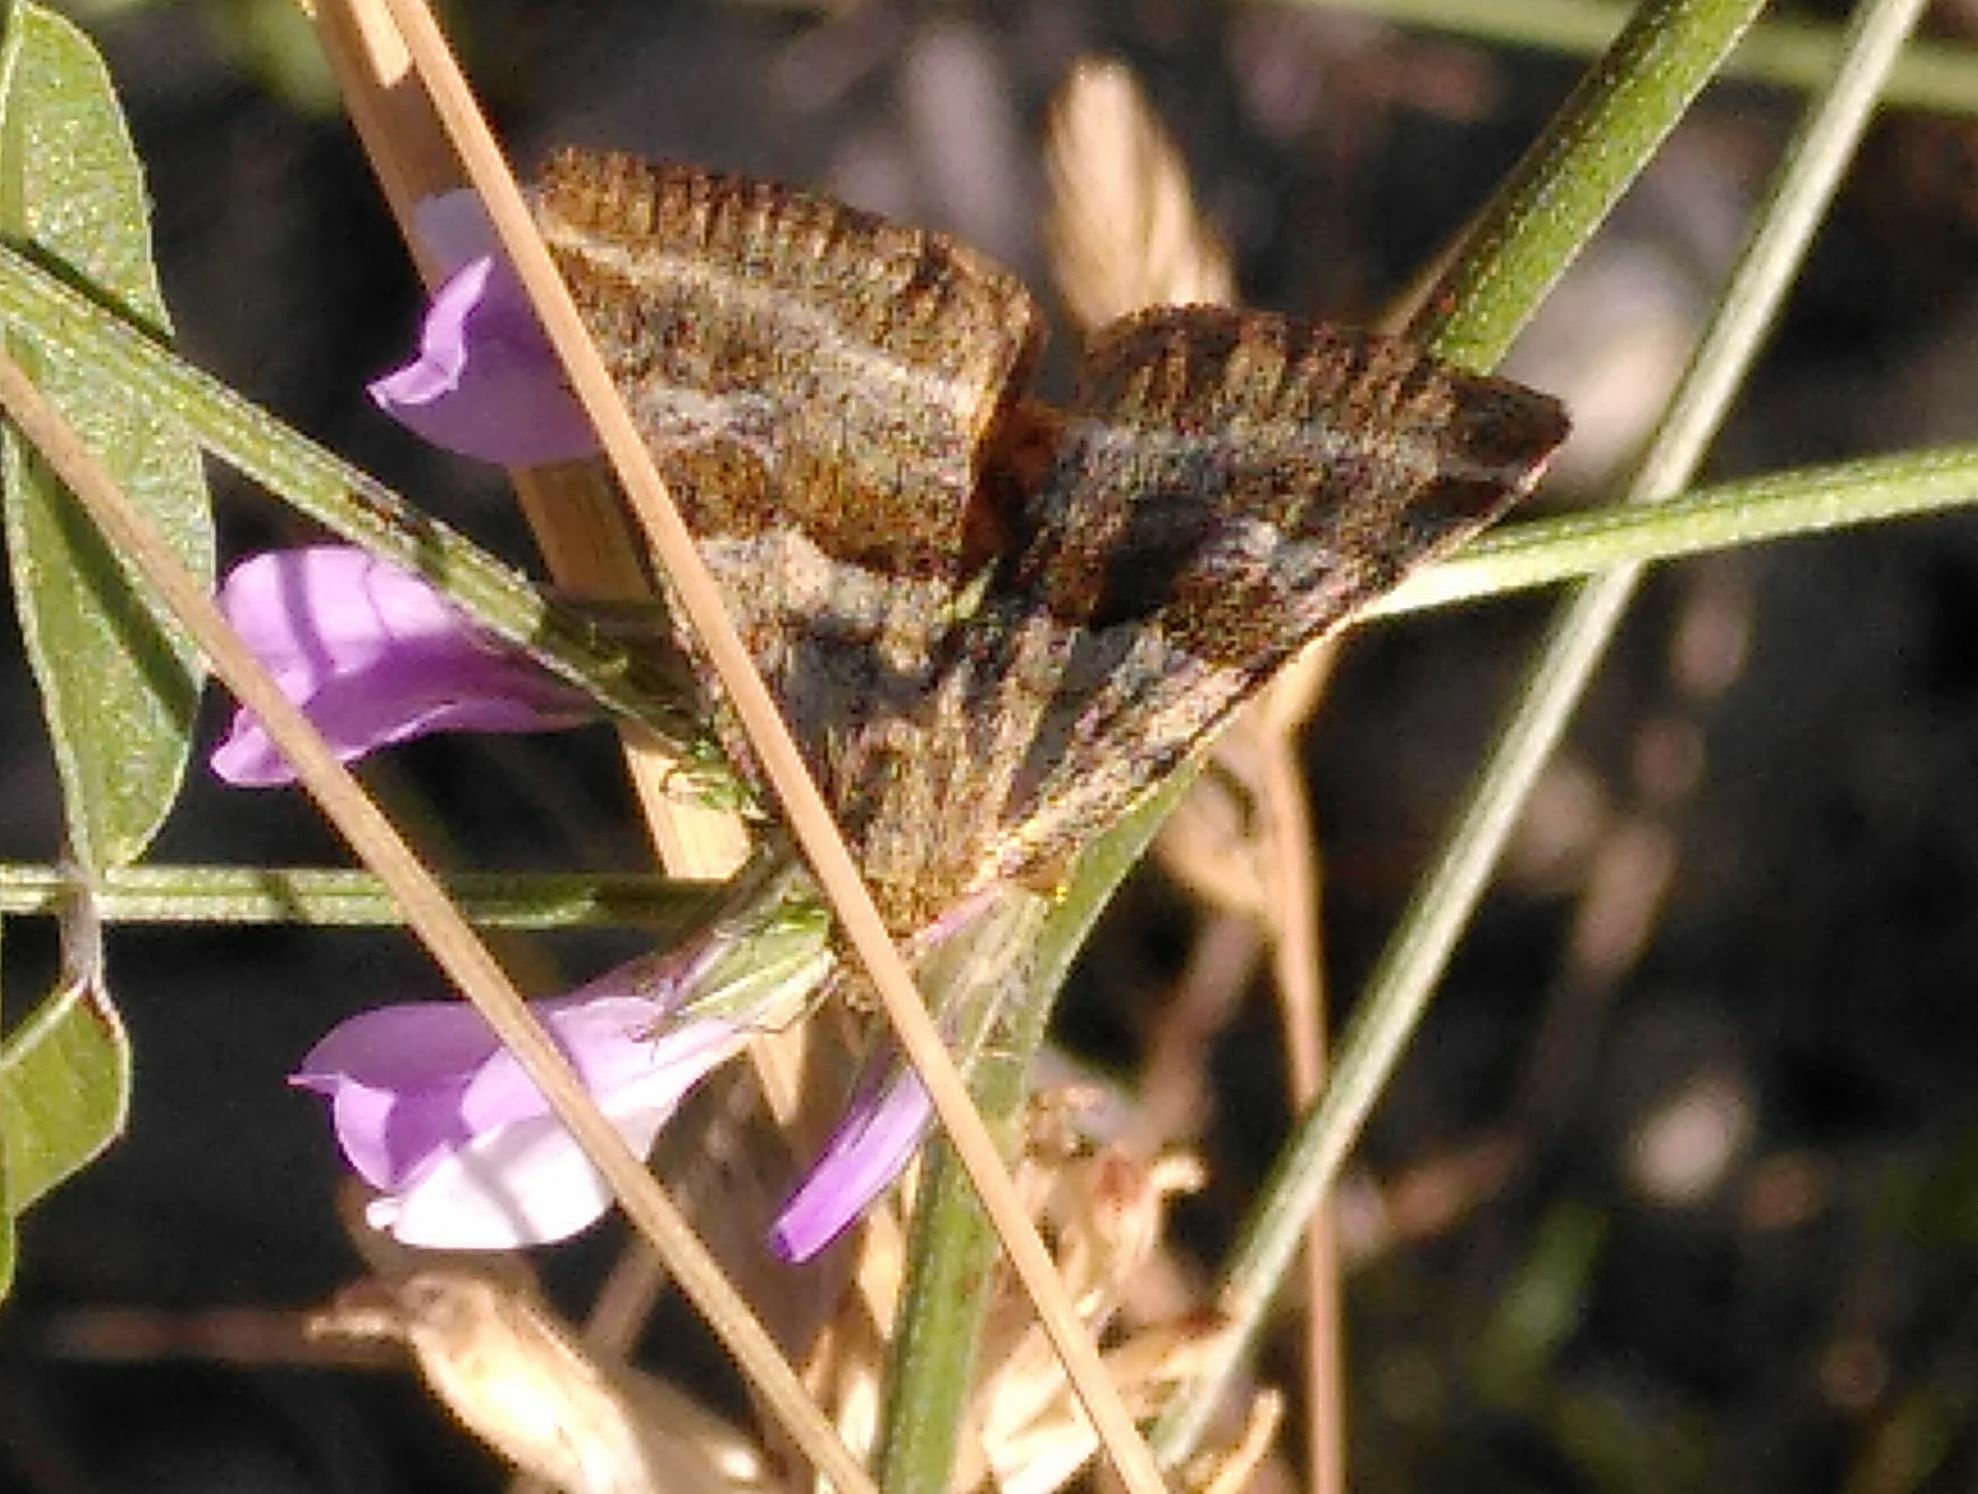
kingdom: Animalia
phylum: Arthropoda
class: Insecta
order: Lepidoptera
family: Noctuidae
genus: Synthymia
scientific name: Synthymia fixa
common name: Goldwing
